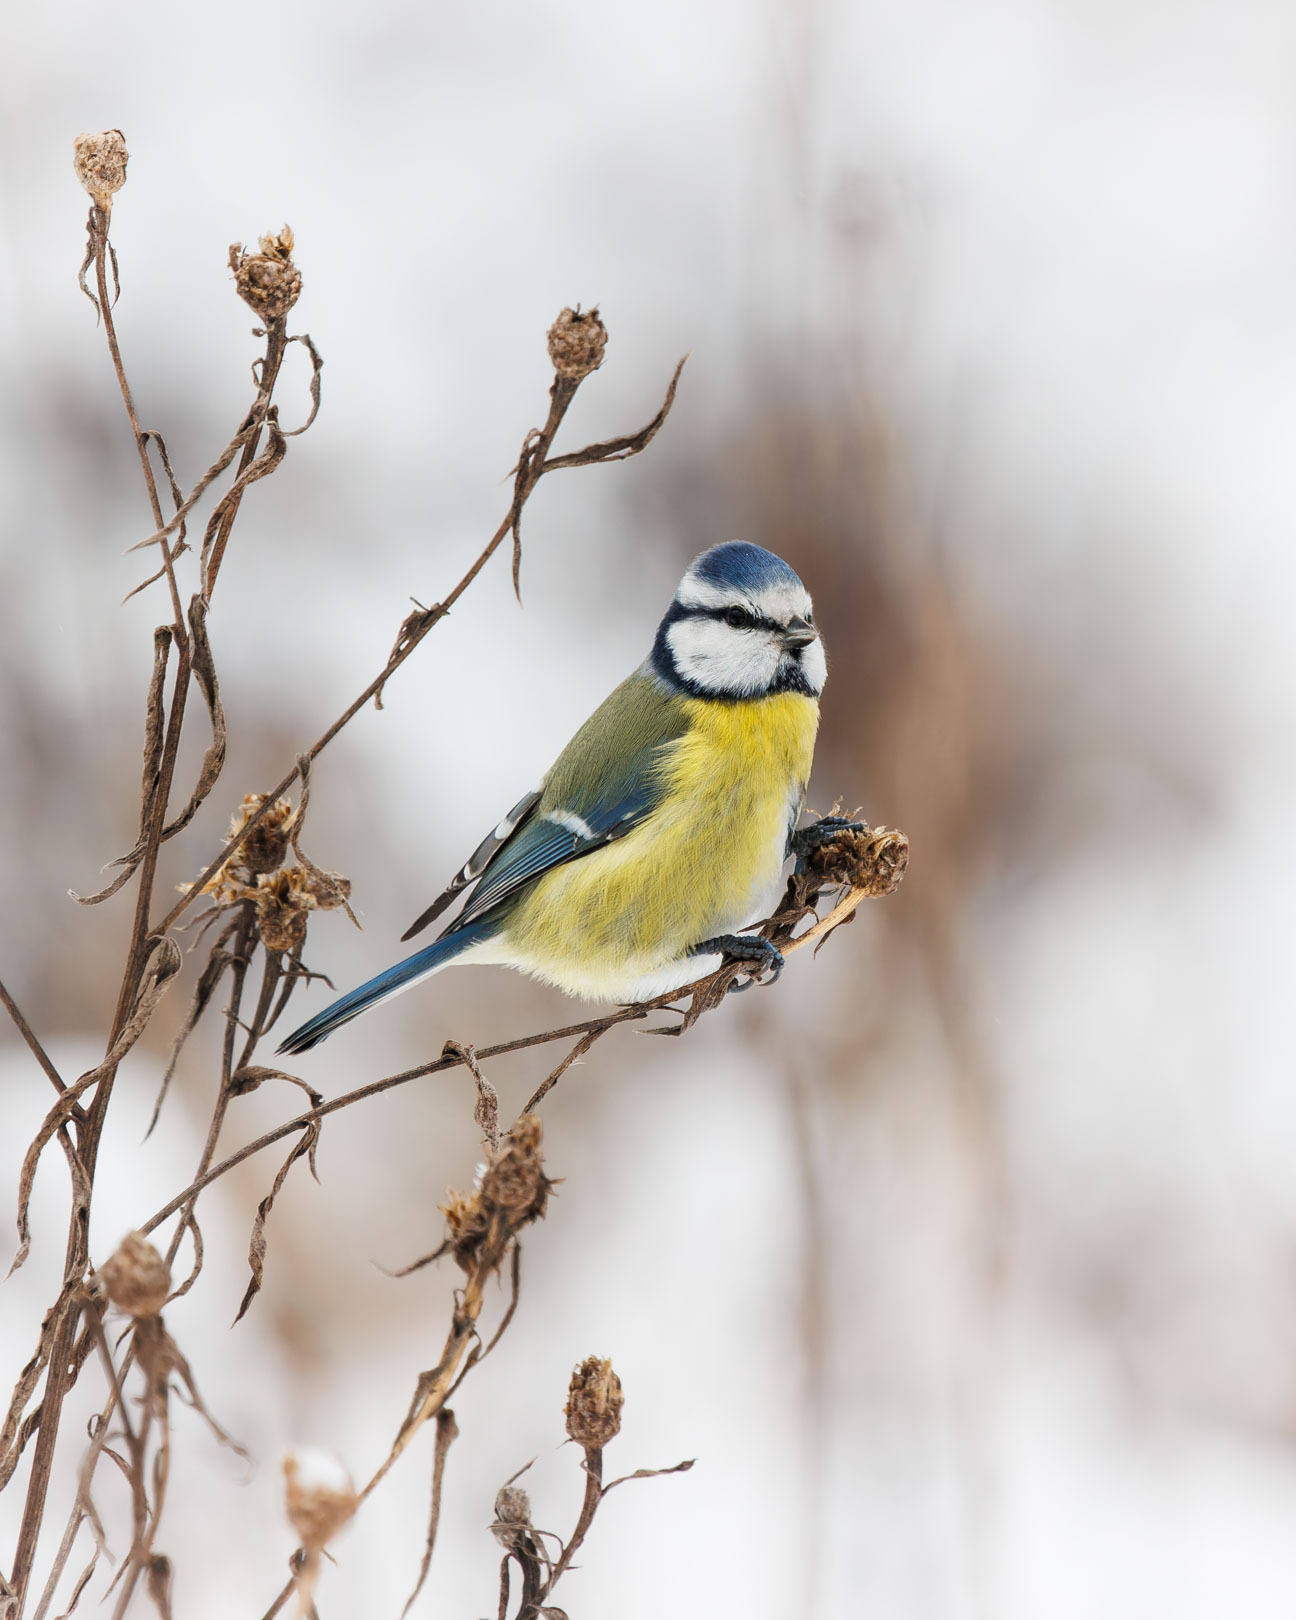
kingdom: Animalia
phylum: Chordata
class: Aves
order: Passeriformes
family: Paridae
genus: Cyanistes
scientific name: Cyanistes caeruleus
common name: Eurasian blue tit
